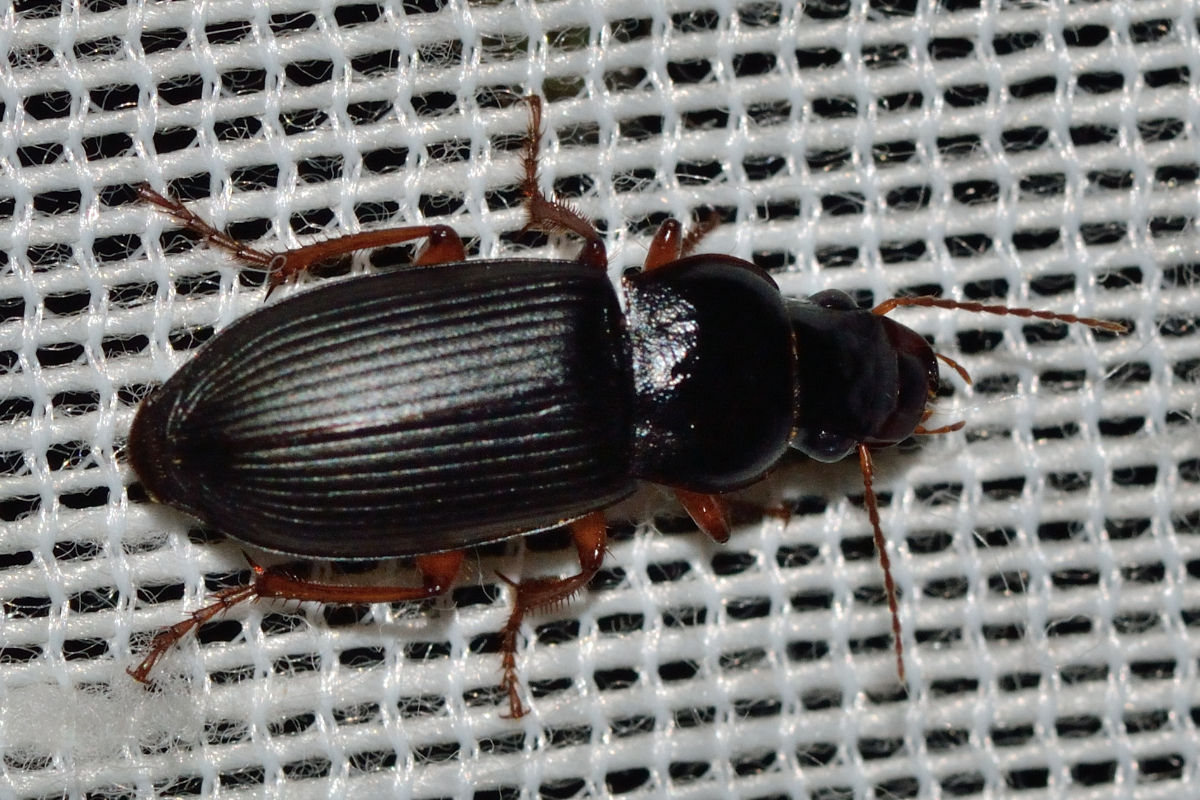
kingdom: Animalia
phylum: Arthropoda
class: Insecta
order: Coleoptera
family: Carabidae
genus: Harpalus
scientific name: Harpalus rufipes
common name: Strawberry harp ground beetle
